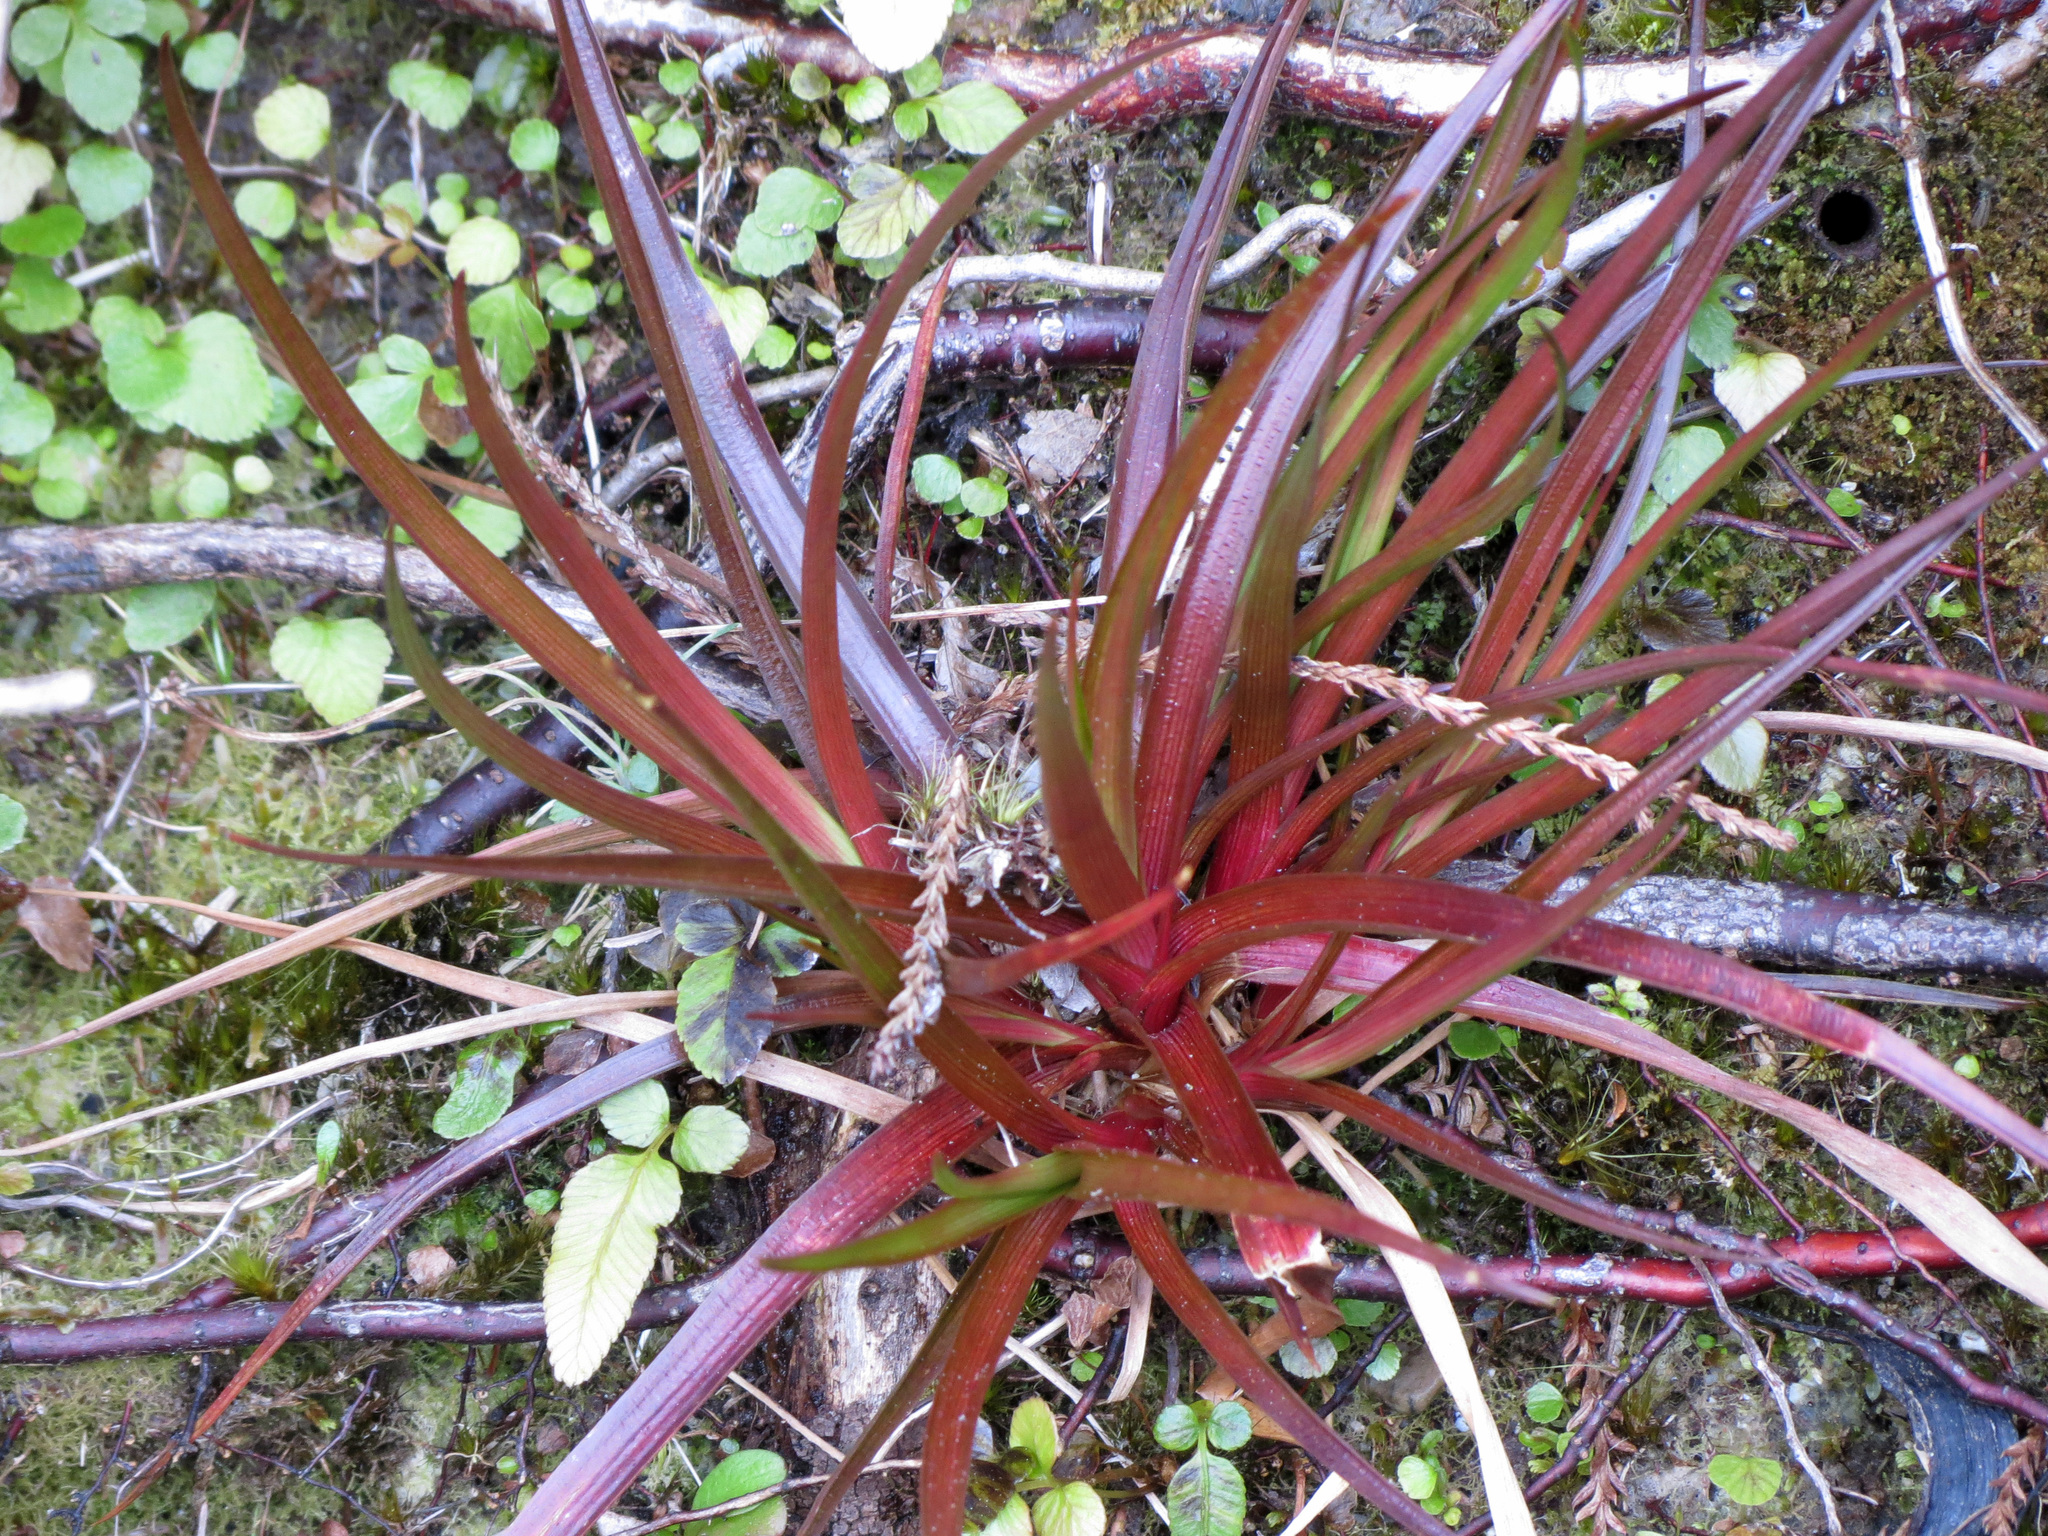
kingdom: Plantae
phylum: Tracheophyta
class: Liliopsida
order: Poales
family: Juncaceae
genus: Juncus
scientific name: Juncus planifolius
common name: Broadleaf rush
